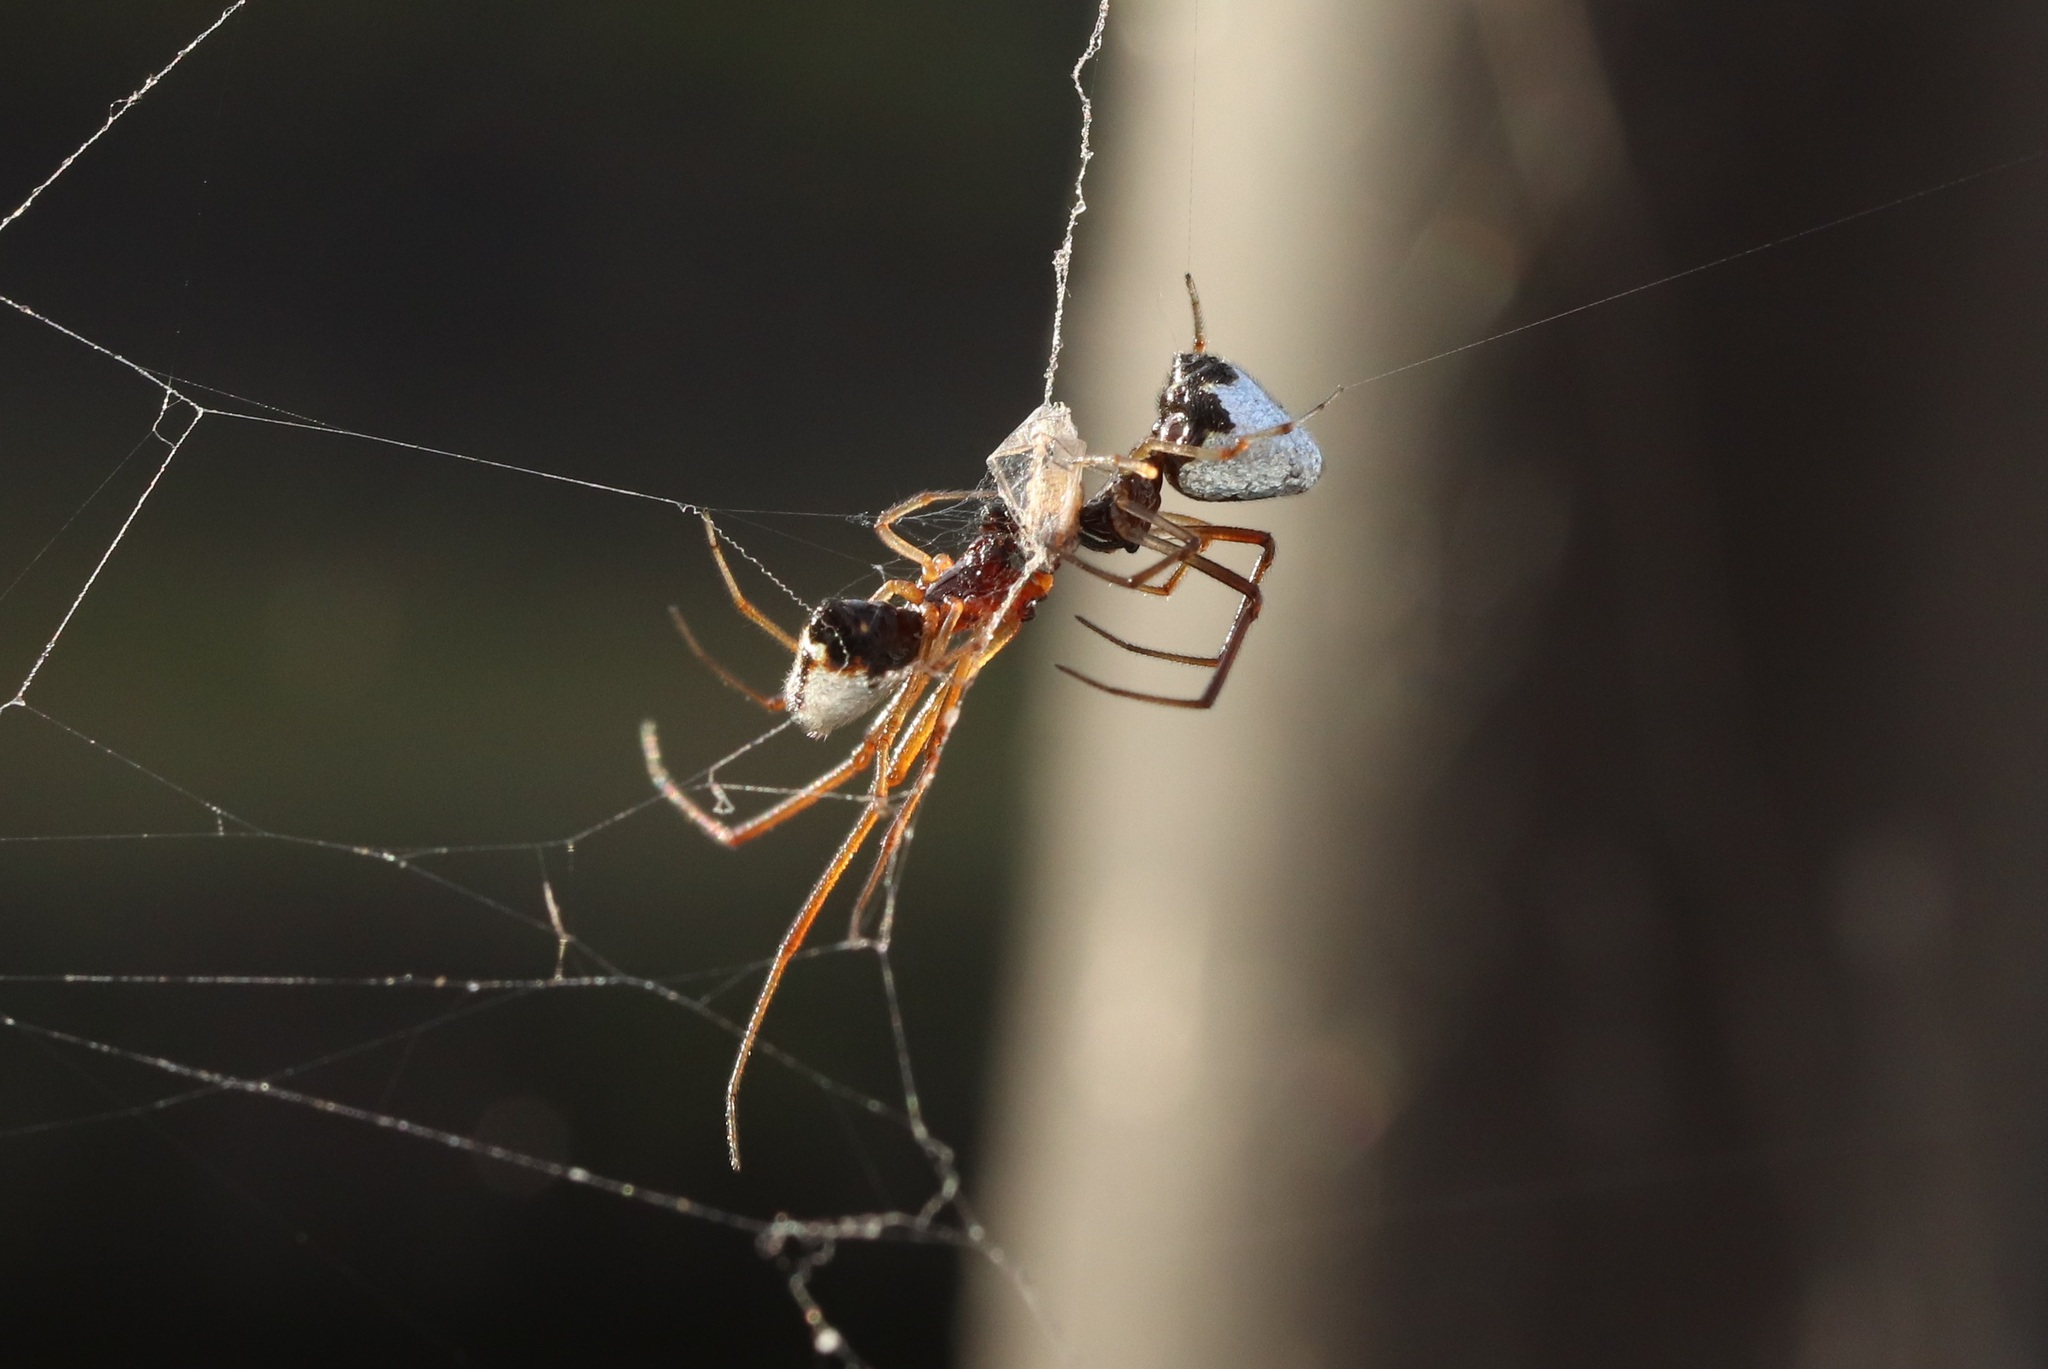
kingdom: Animalia
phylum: Arthropoda
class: Arachnida
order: Araneae
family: Theridiidae
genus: Argyrodes
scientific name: Argyrodes bonadea
